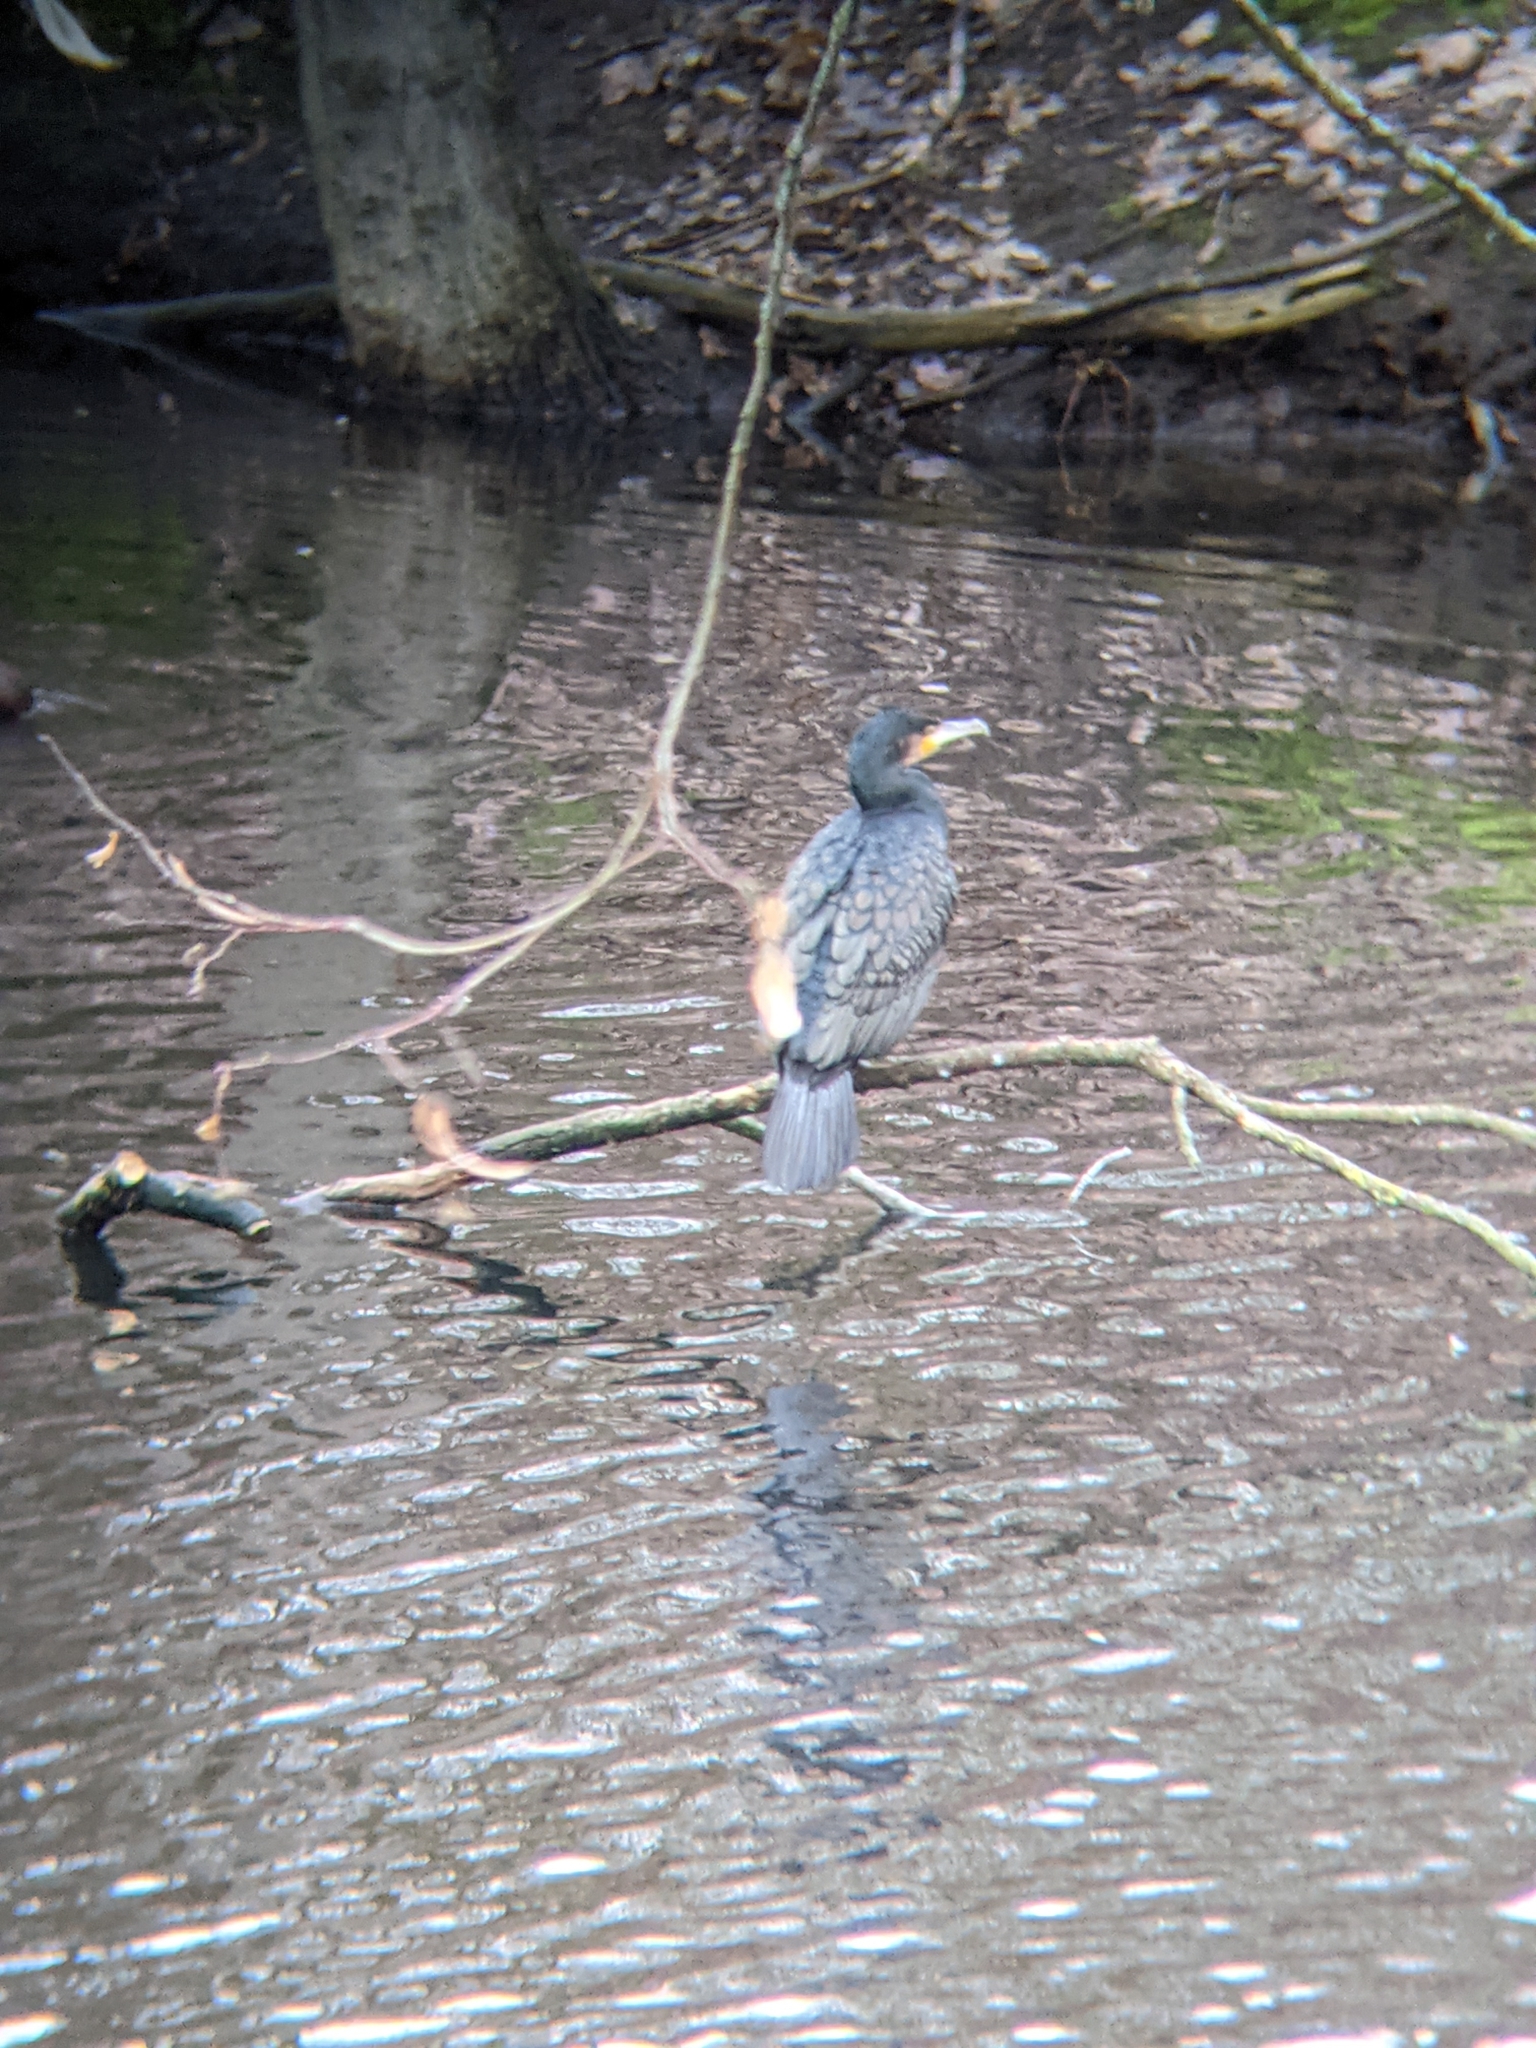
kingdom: Animalia
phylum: Chordata
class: Aves
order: Suliformes
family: Phalacrocoracidae
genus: Phalacrocorax
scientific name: Phalacrocorax carbo
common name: Great cormorant
